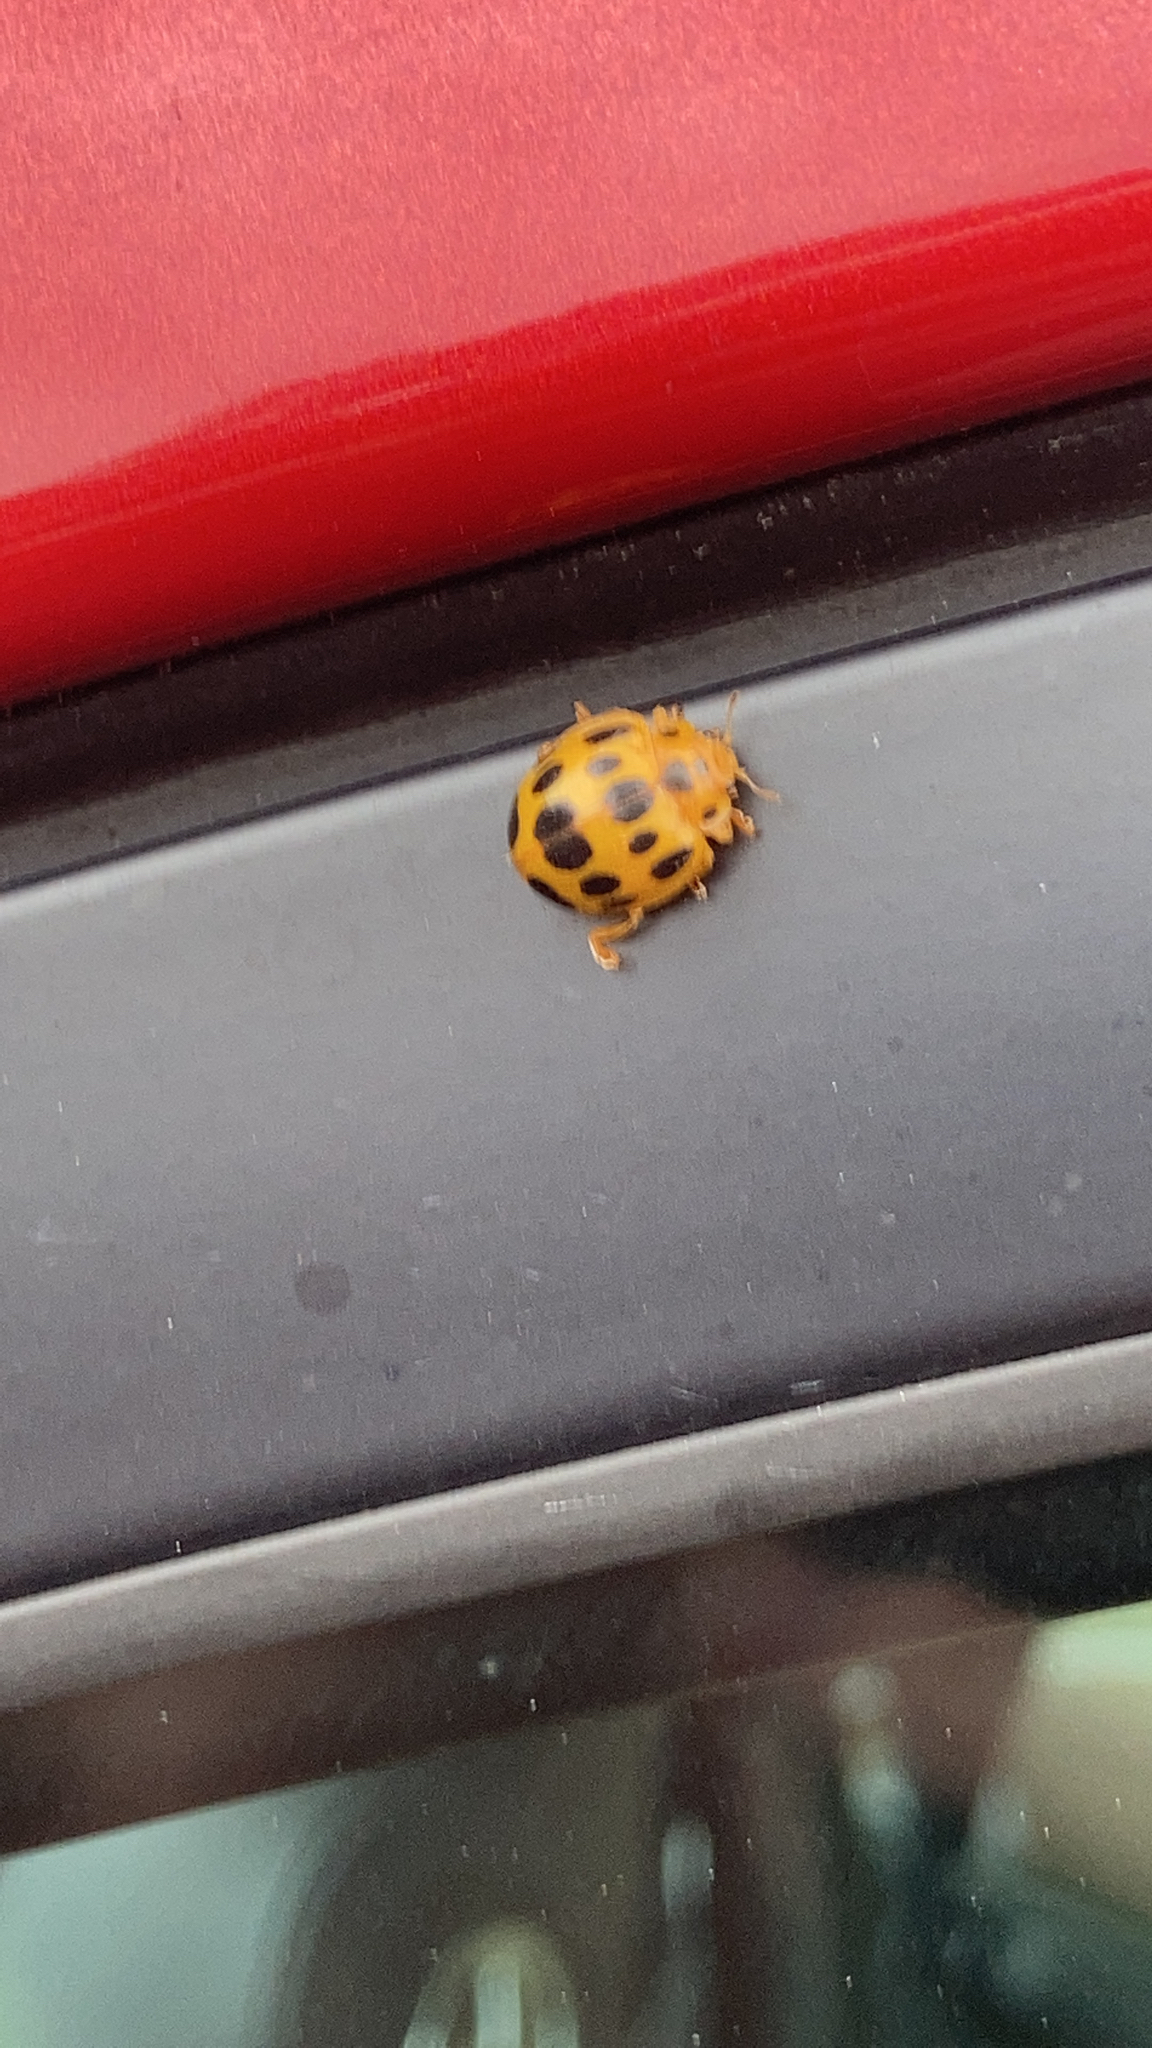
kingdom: Animalia
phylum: Arthropoda
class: Insecta
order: Coleoptera
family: Coccinellidae
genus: Epilachna
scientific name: Epilachna borealis
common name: Squash beetle
